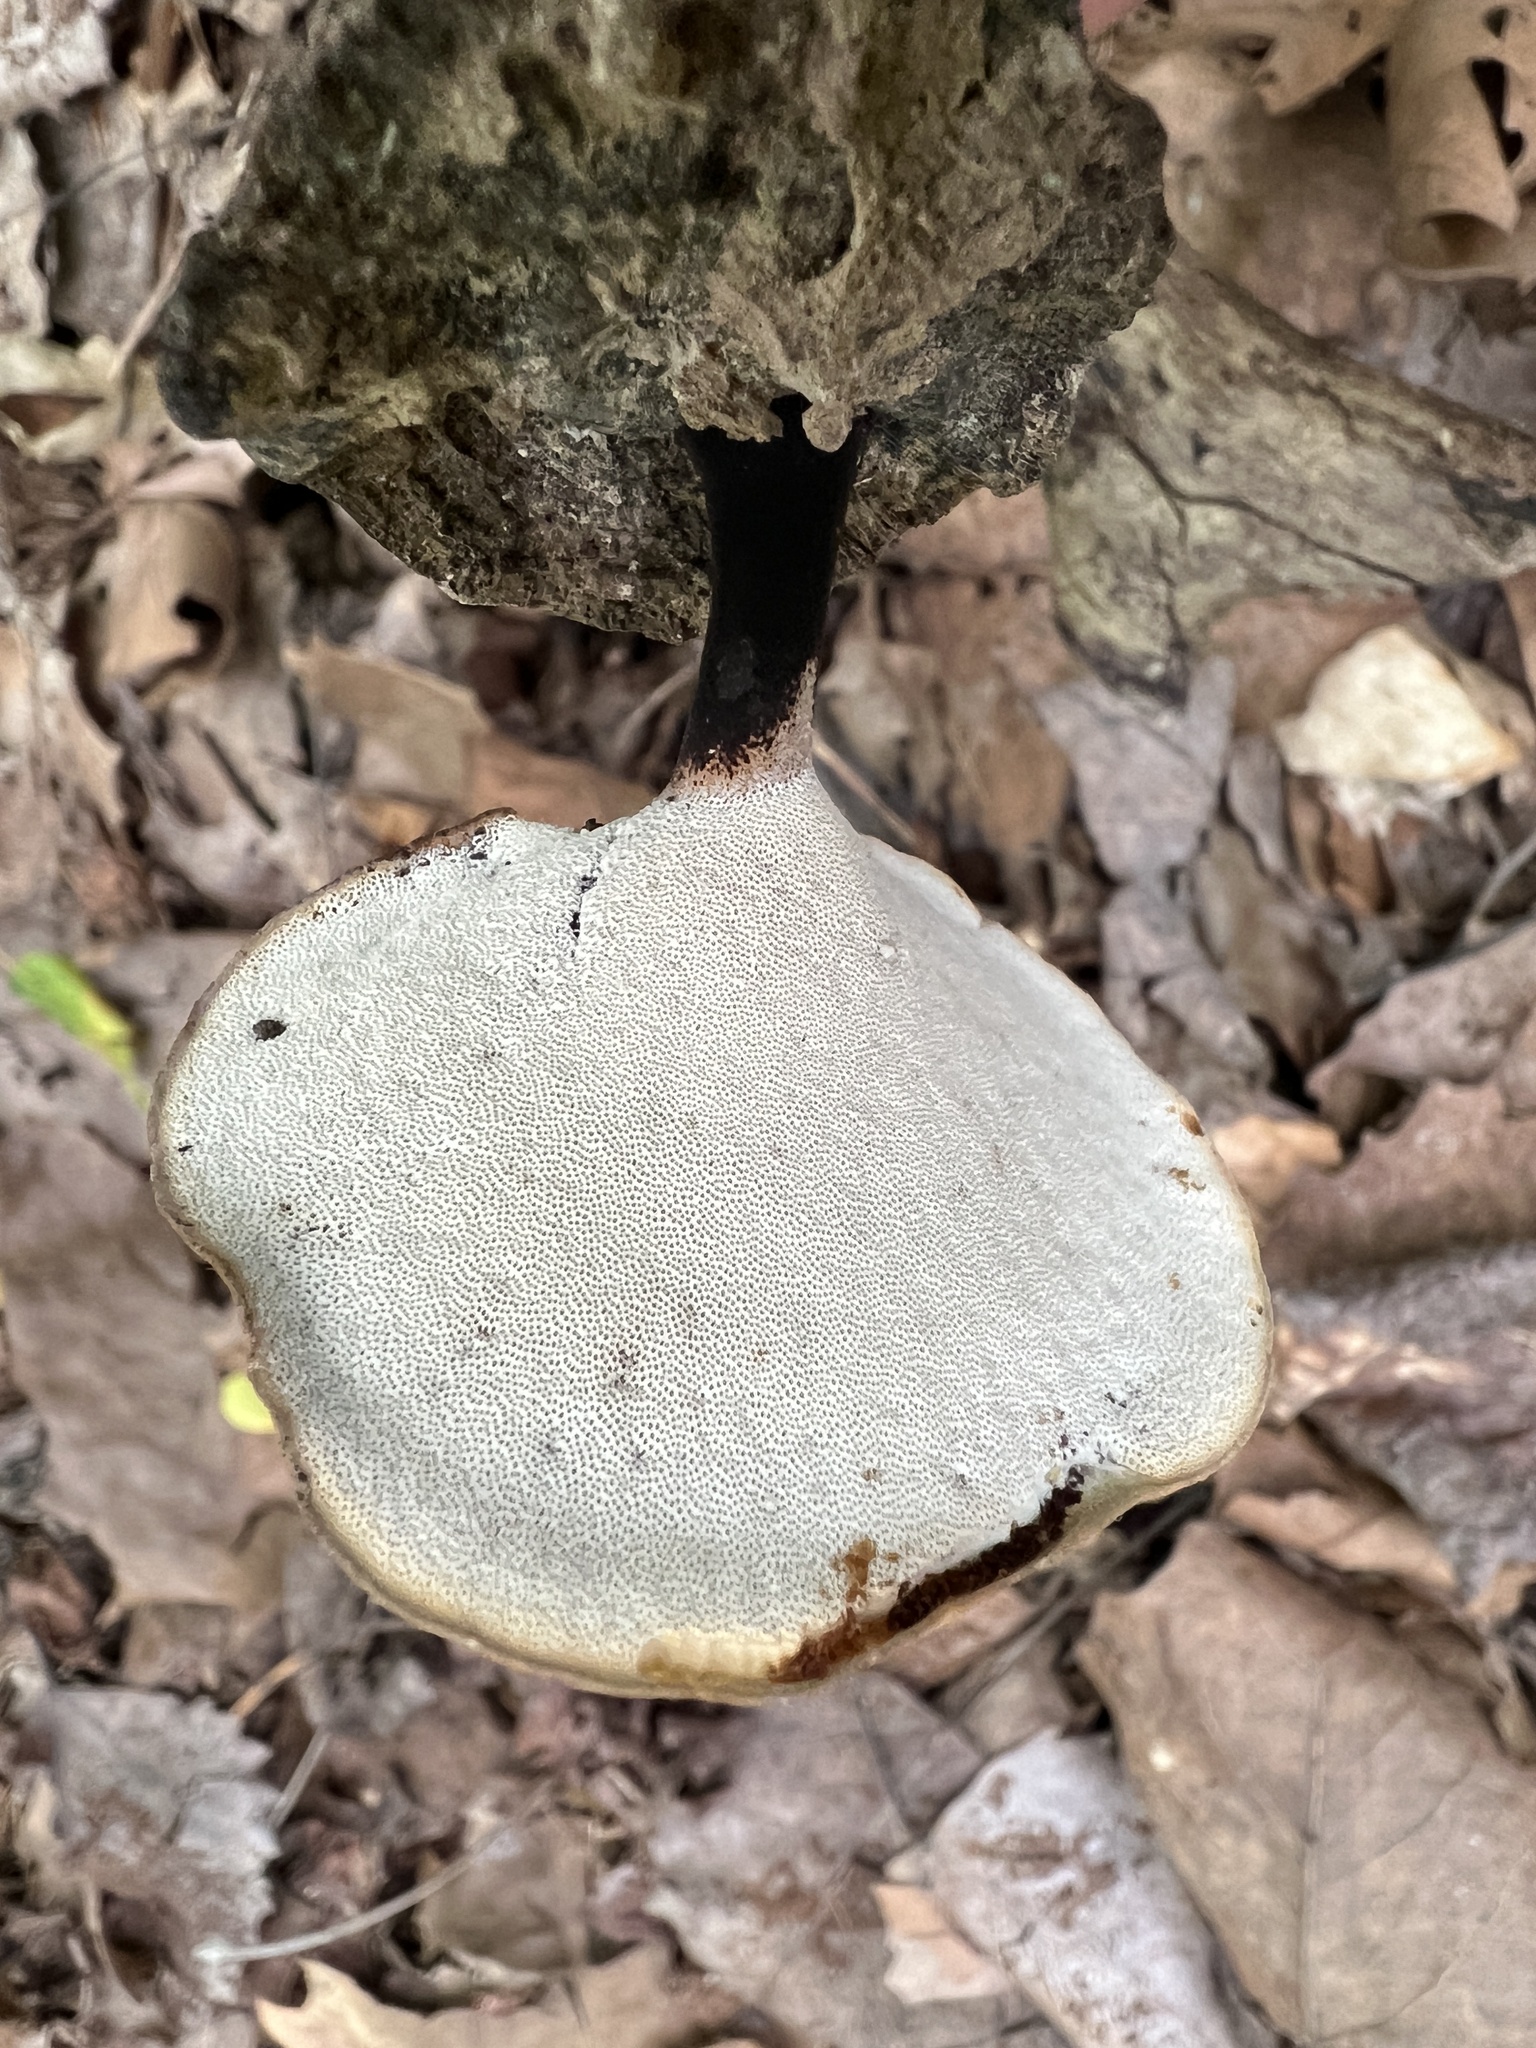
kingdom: Fungi
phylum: Basidiomycota
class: Agaricomycetes
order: Polyporales
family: Polyporaceae
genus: Cerioporus
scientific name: Cerioporus leptocephalus
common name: Blackfoot polypore
